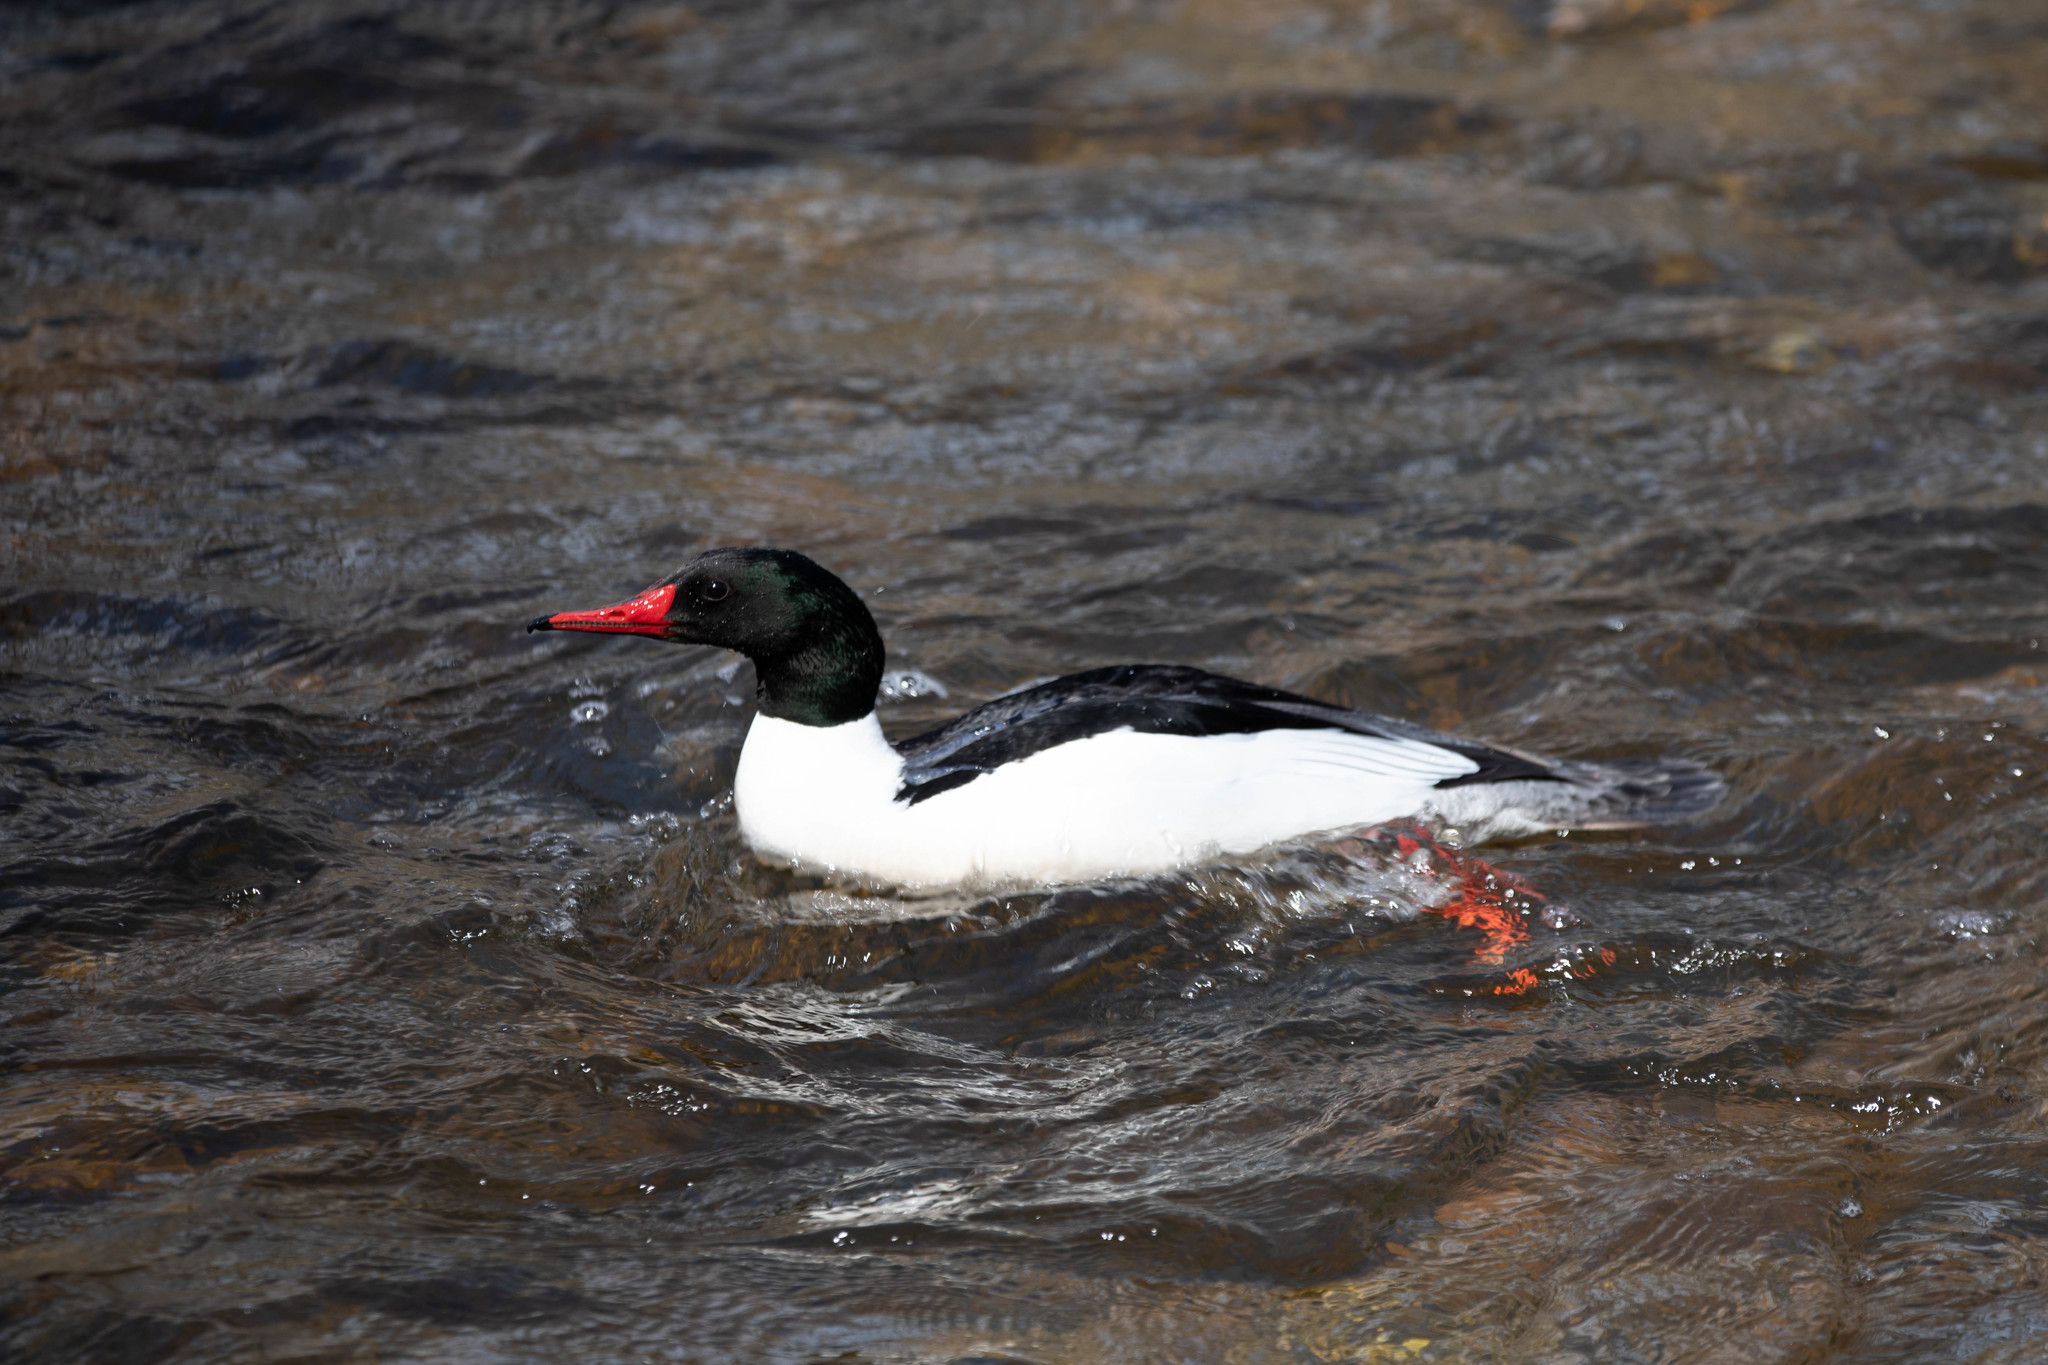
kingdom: Animalia
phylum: Chordata
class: Aves
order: Anseriformes
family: Anatidae
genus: Mergus
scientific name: Mergus merganser
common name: Common merganser
